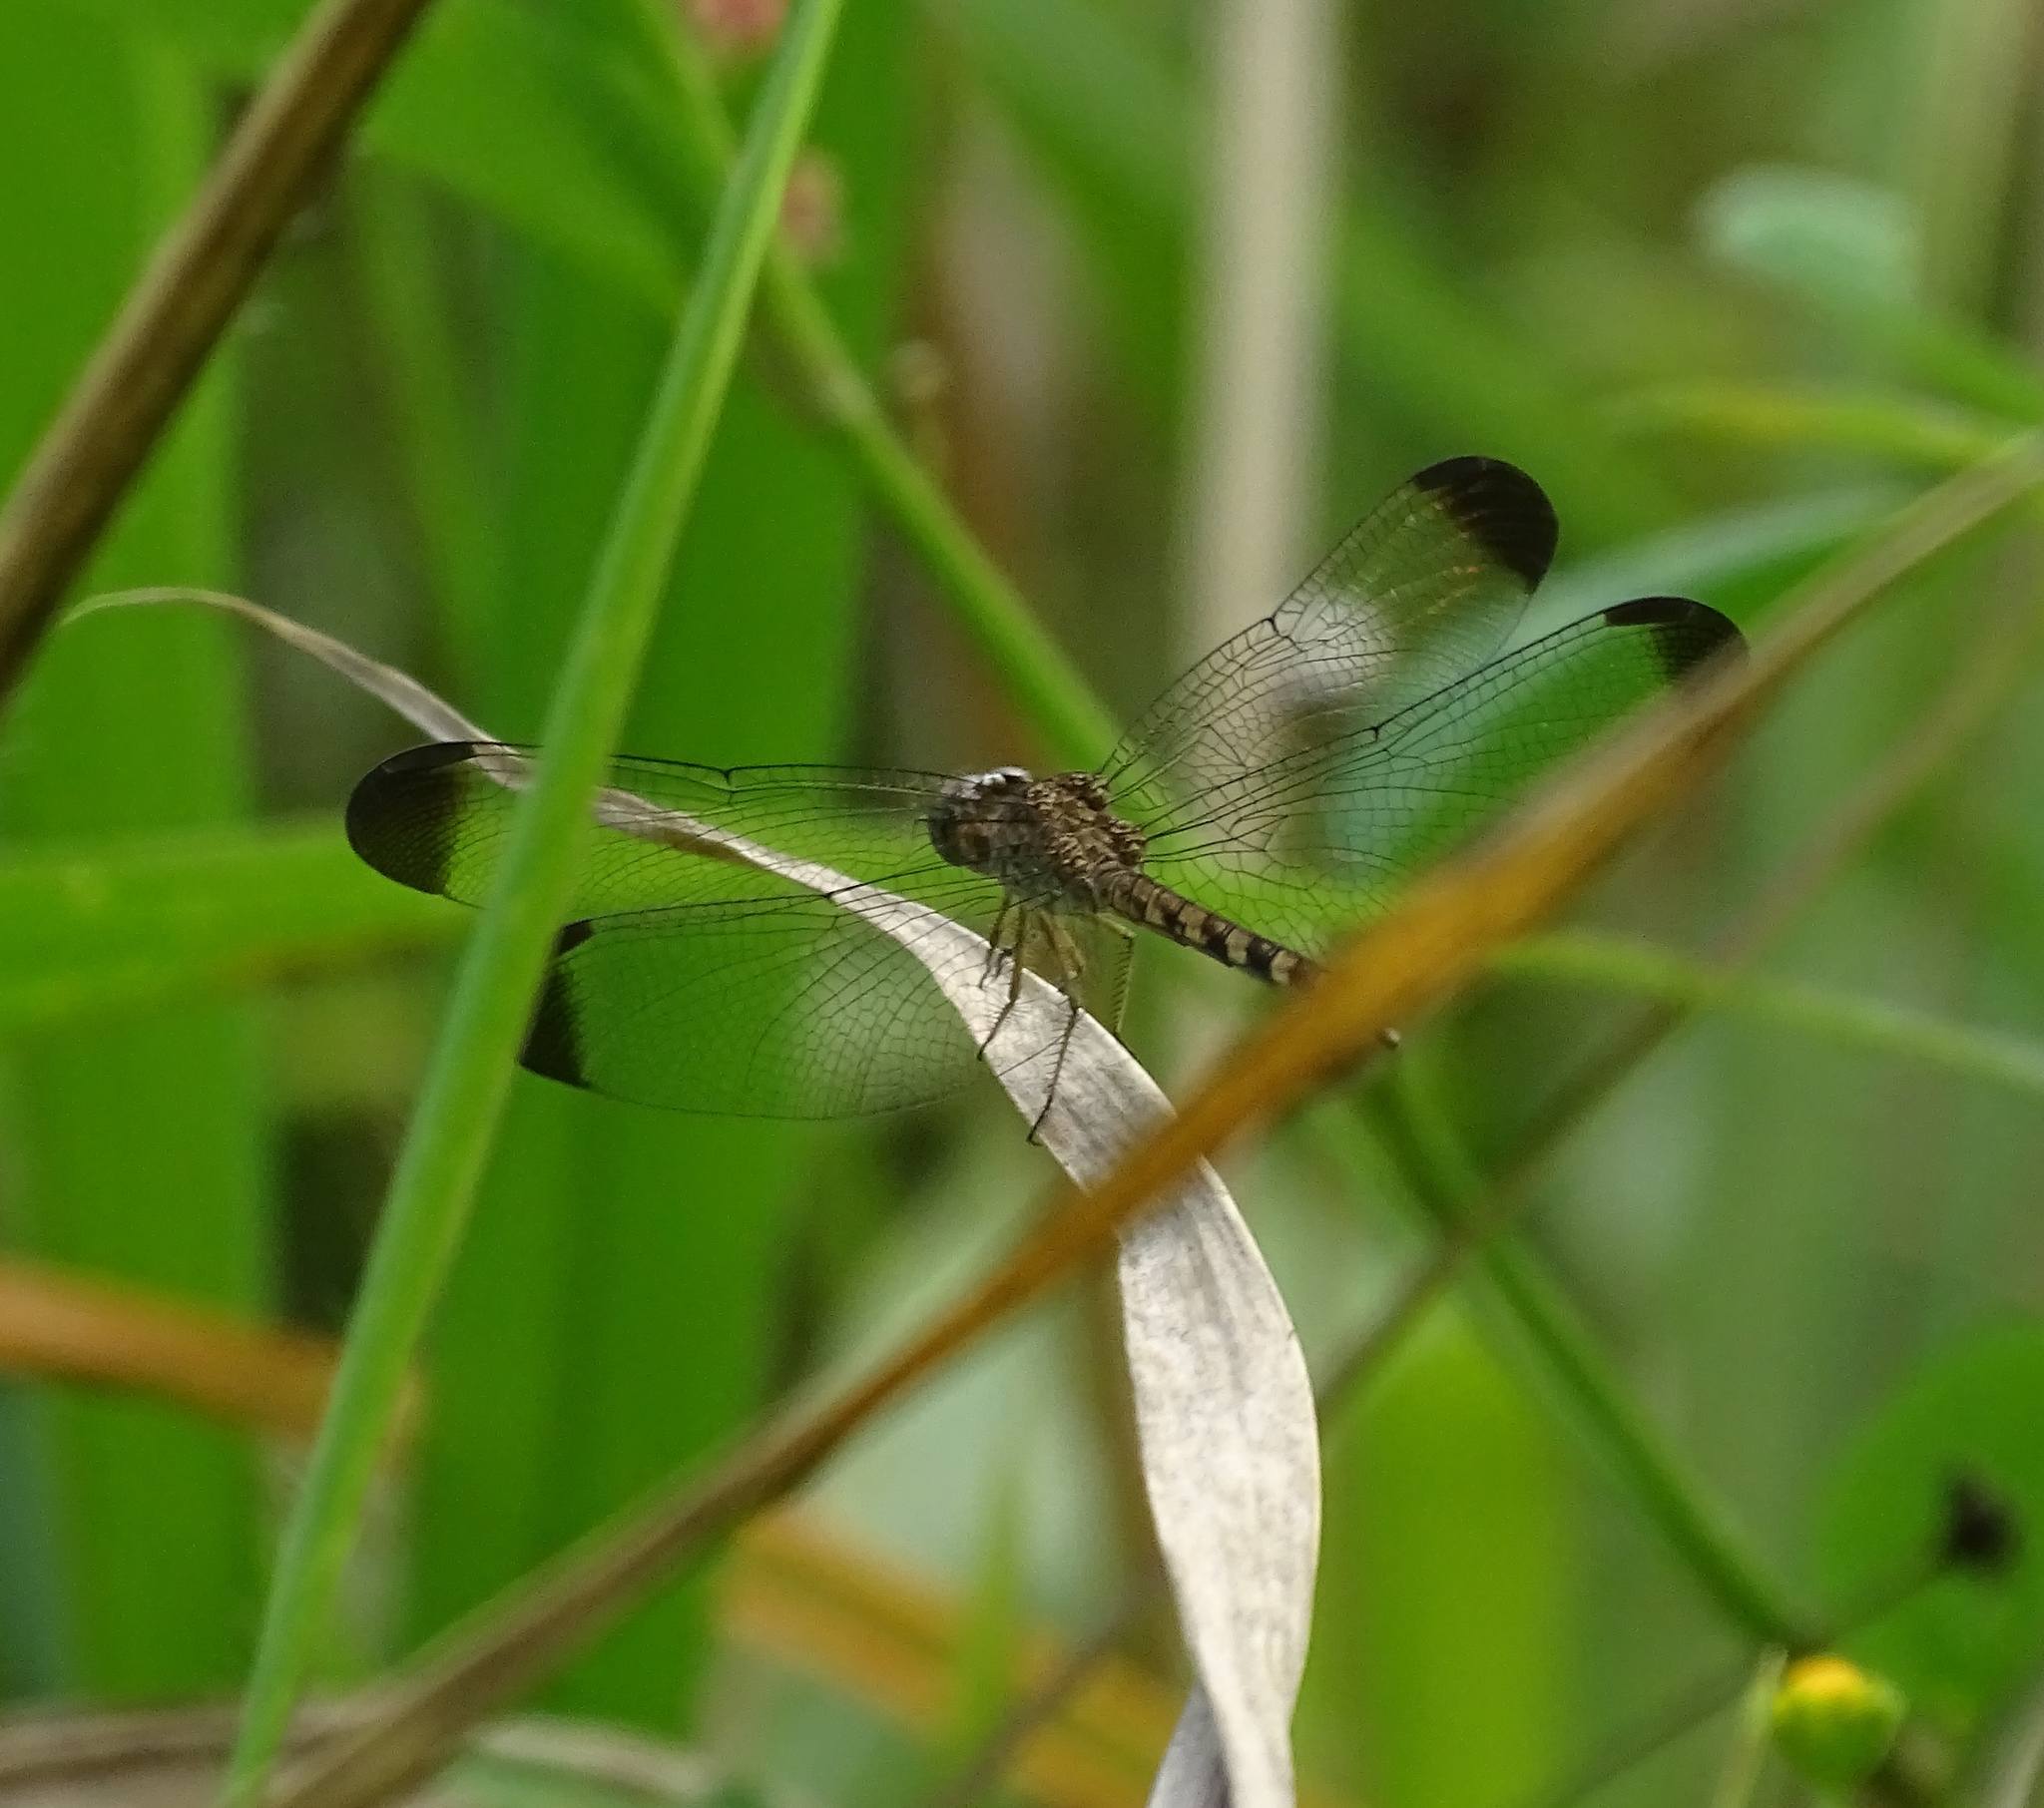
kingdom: Animalia
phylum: Arthropoda
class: Insecta
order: Odonata
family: Libellulidae
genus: Uracis
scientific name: Uracis imbuta
